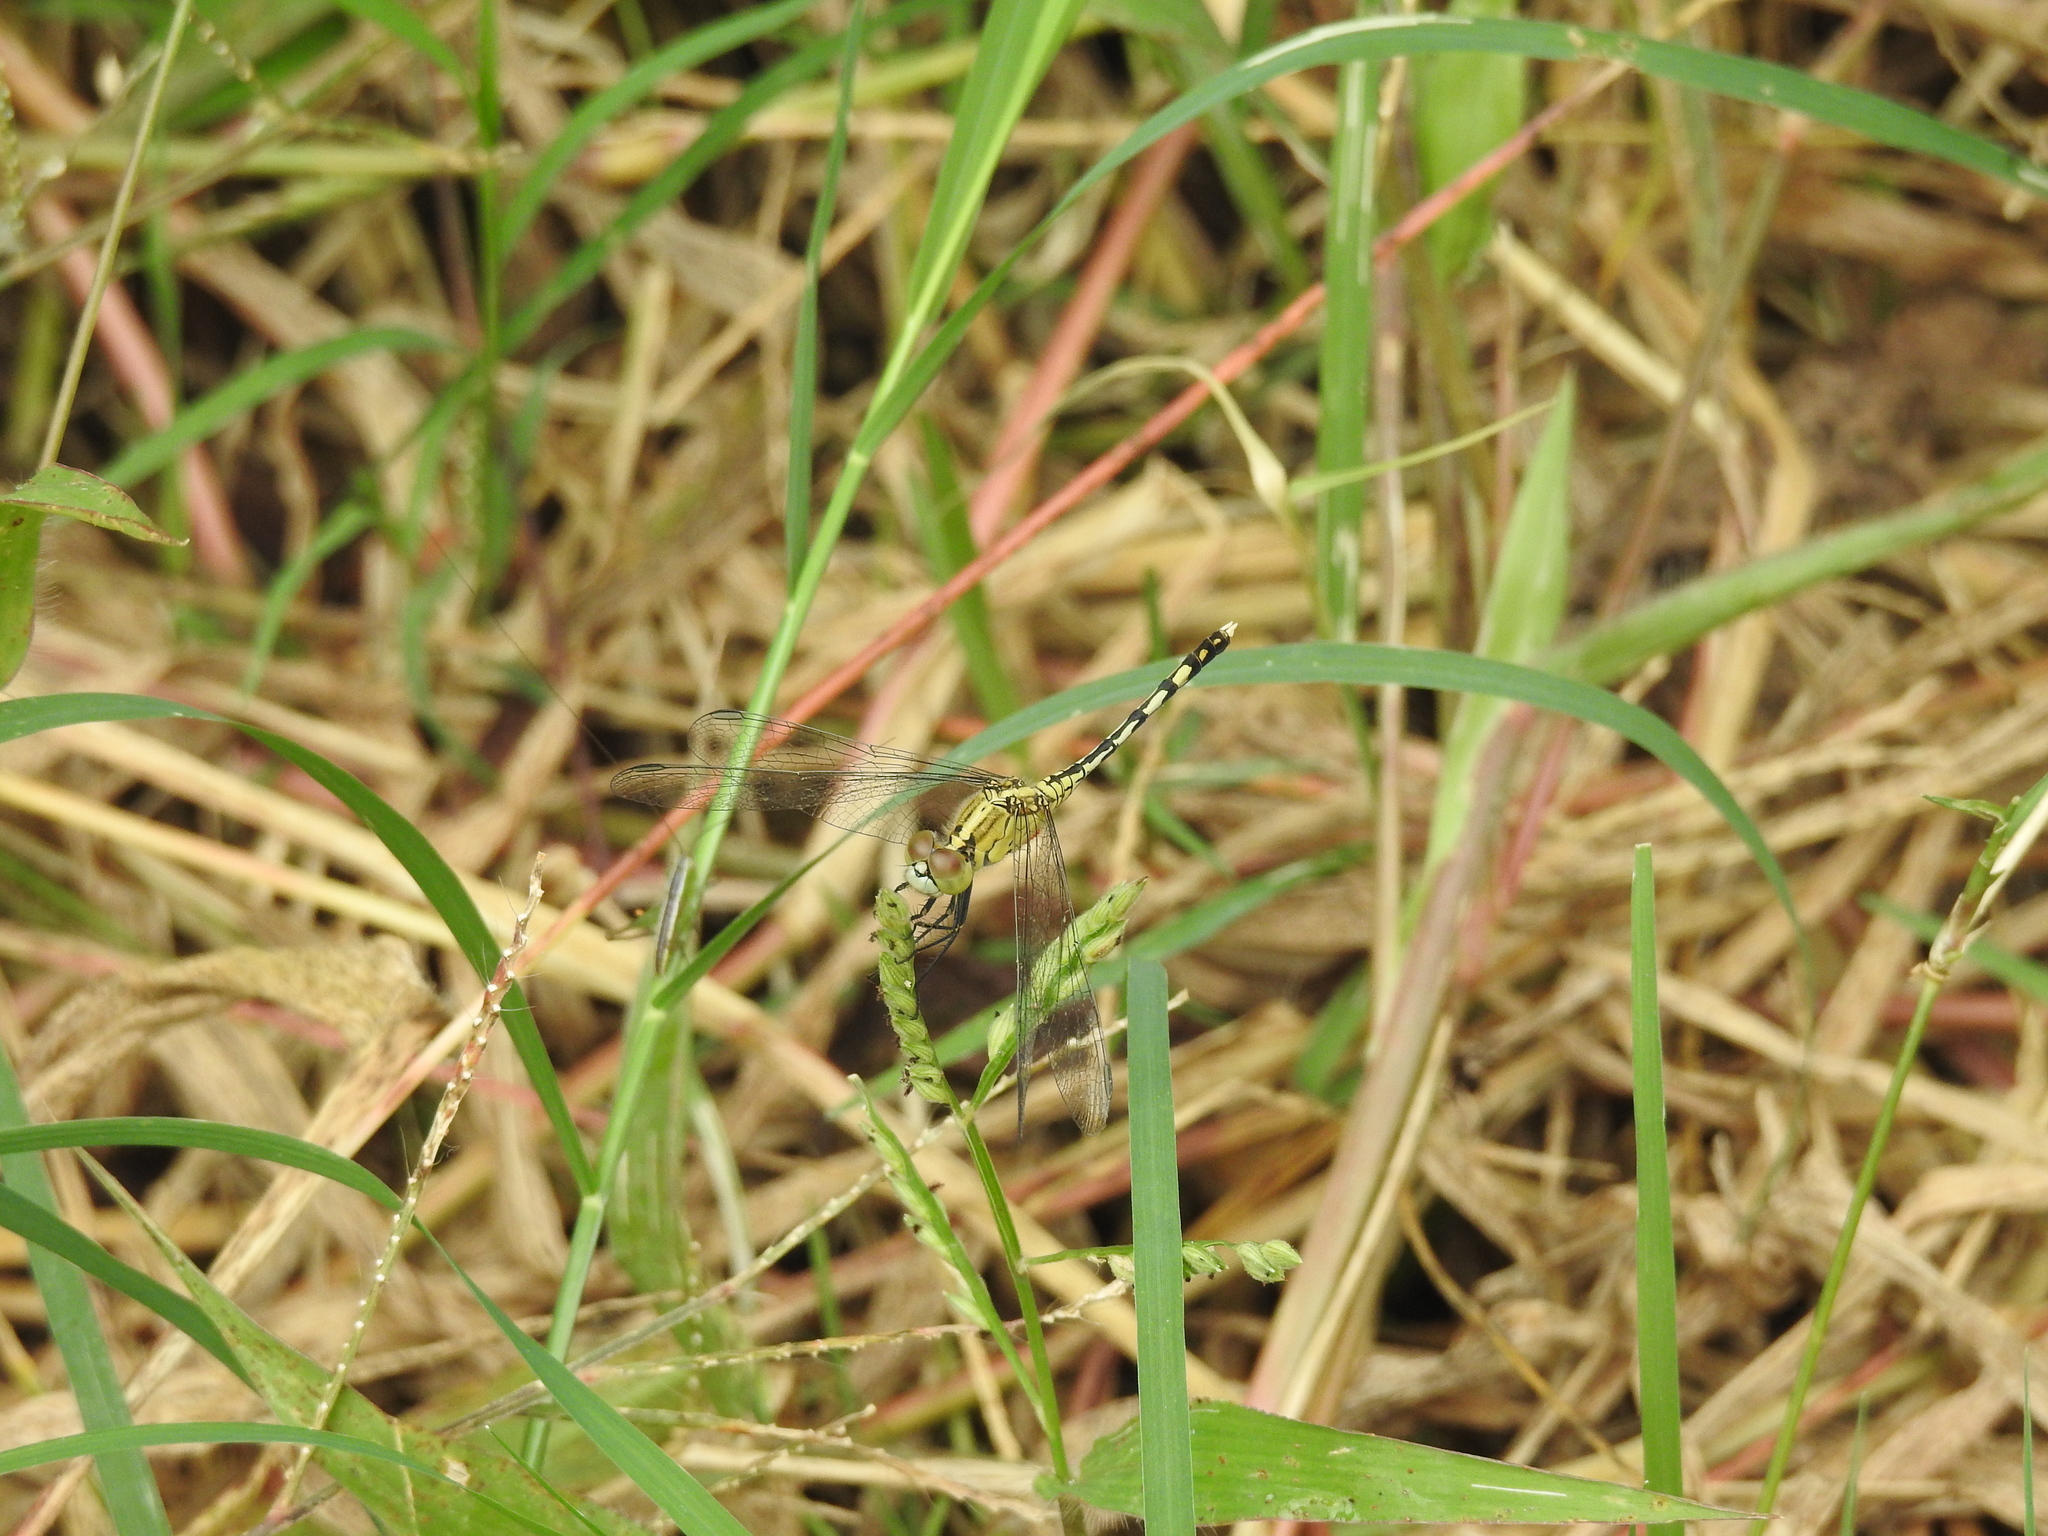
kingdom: Animalia
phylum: Arthropoda
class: Insecta
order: Odonata
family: Libellulidae
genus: Diplacodes
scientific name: Diplacodes trivialis
